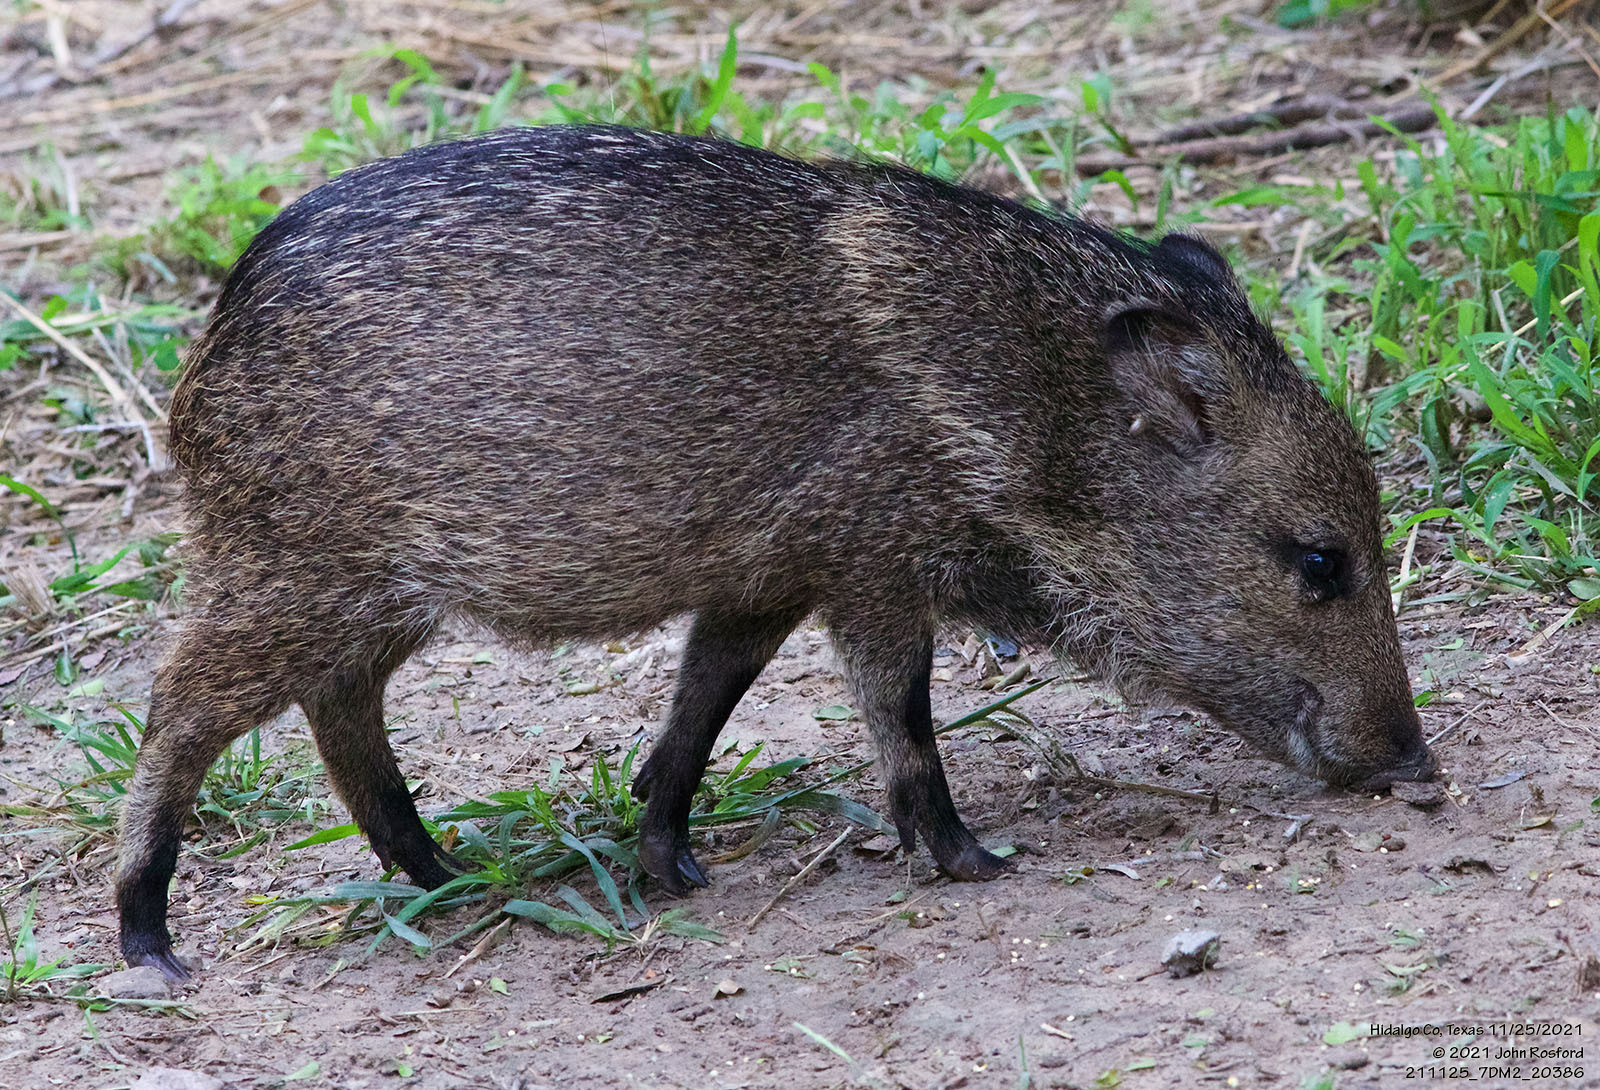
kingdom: Animalia
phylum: Chordata
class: Mammalia
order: Artiodactyla
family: Tayassuidae
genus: Pecari
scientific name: Pecari tajacu
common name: Collared peccary
